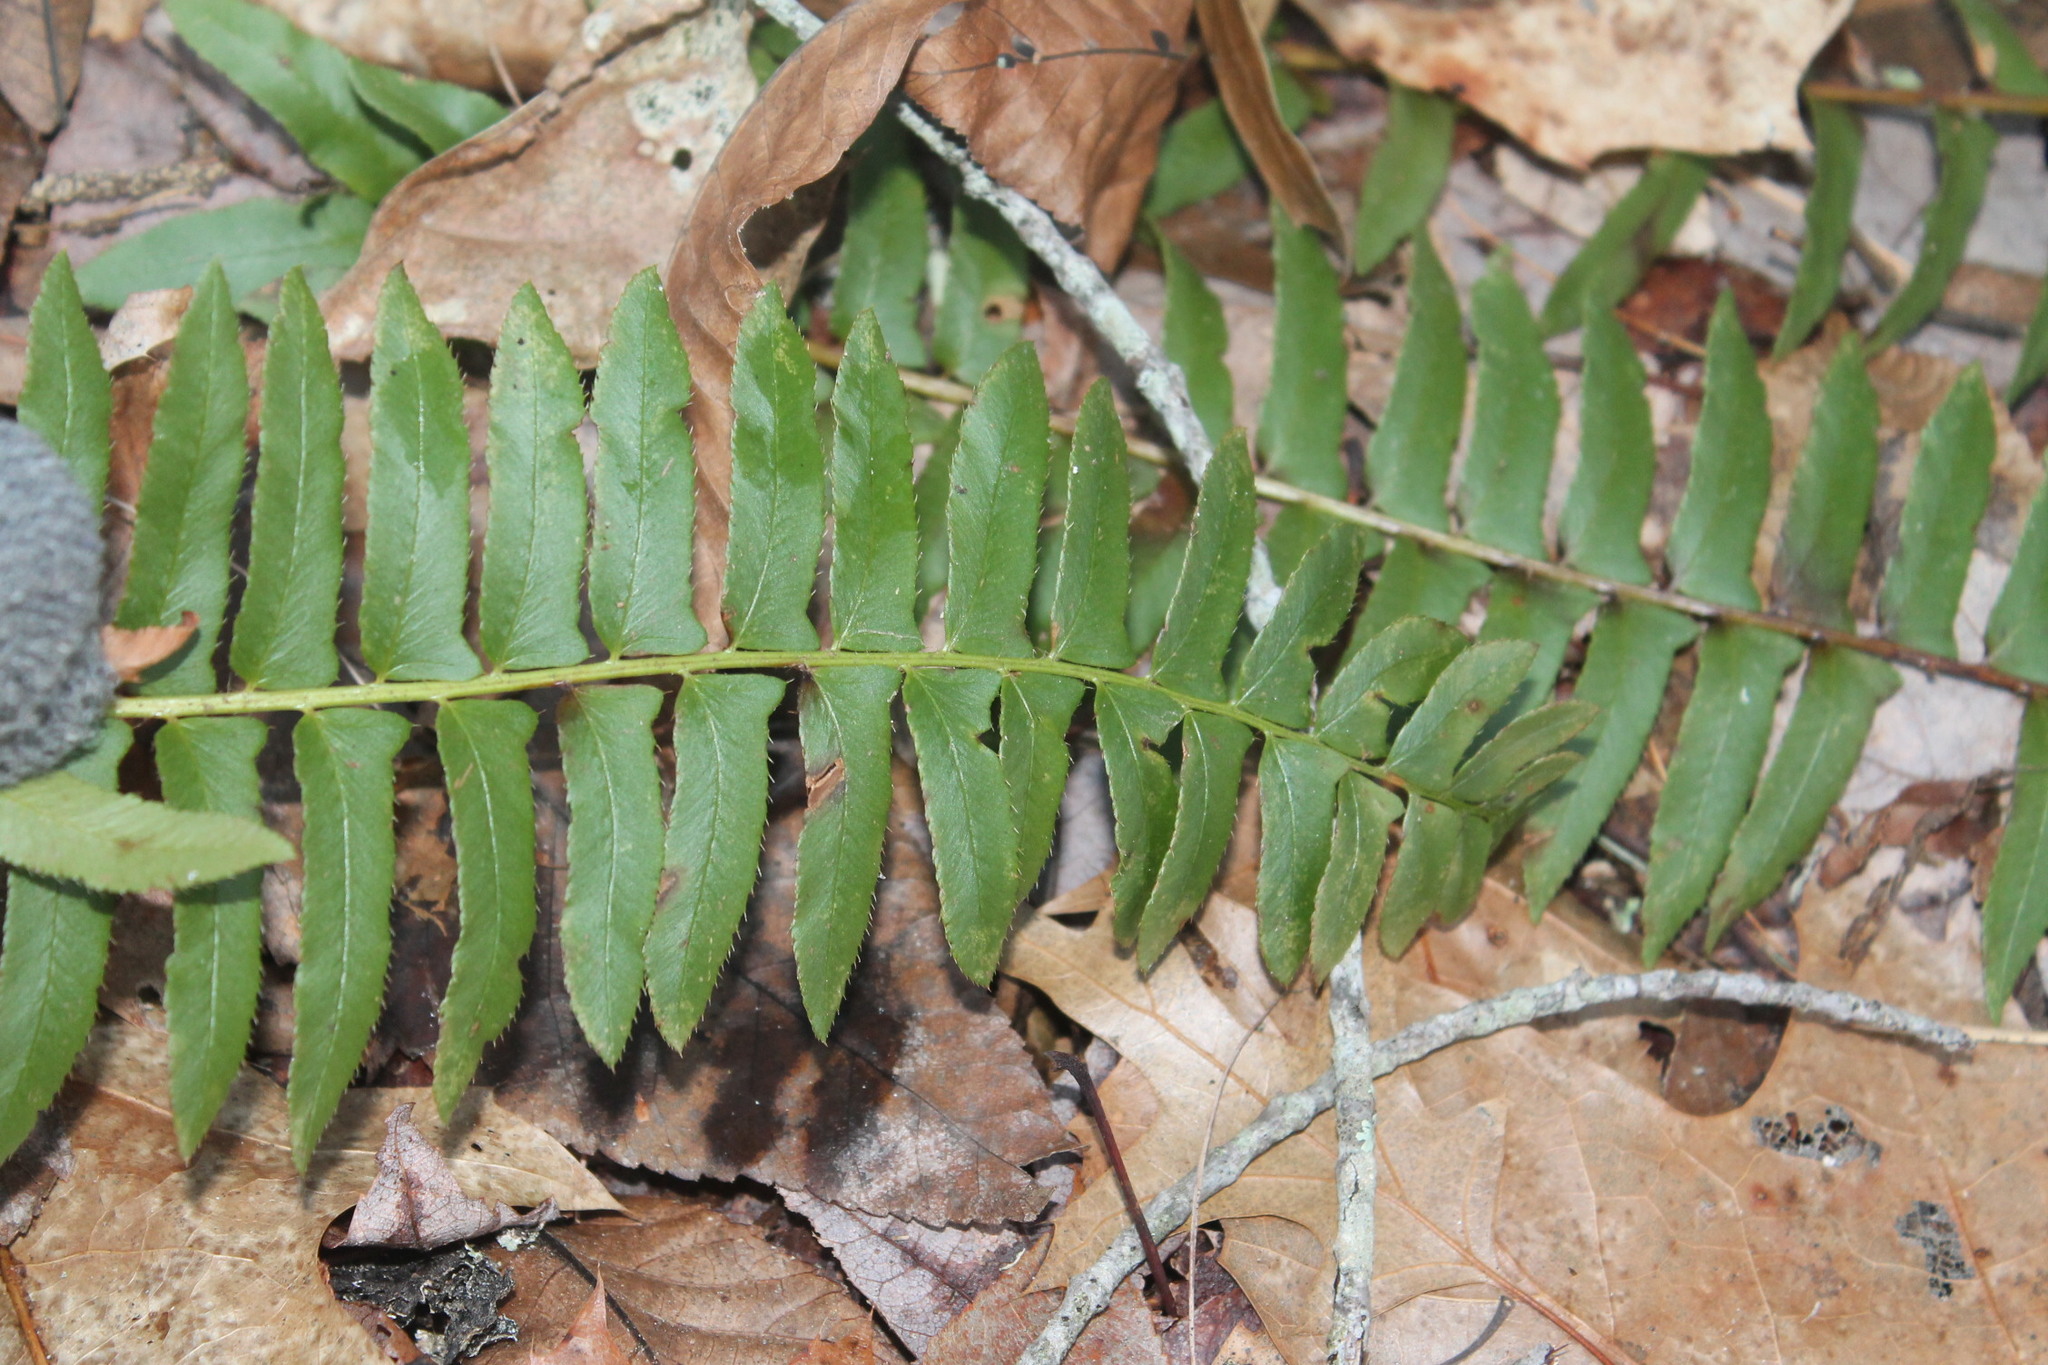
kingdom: Plantae
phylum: Tracheophyta
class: Polypodiopsida
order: Polypodiales
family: Dryopteridaceae
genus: Polystichum
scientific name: Polystichum acrostichoides
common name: Christmas fern
